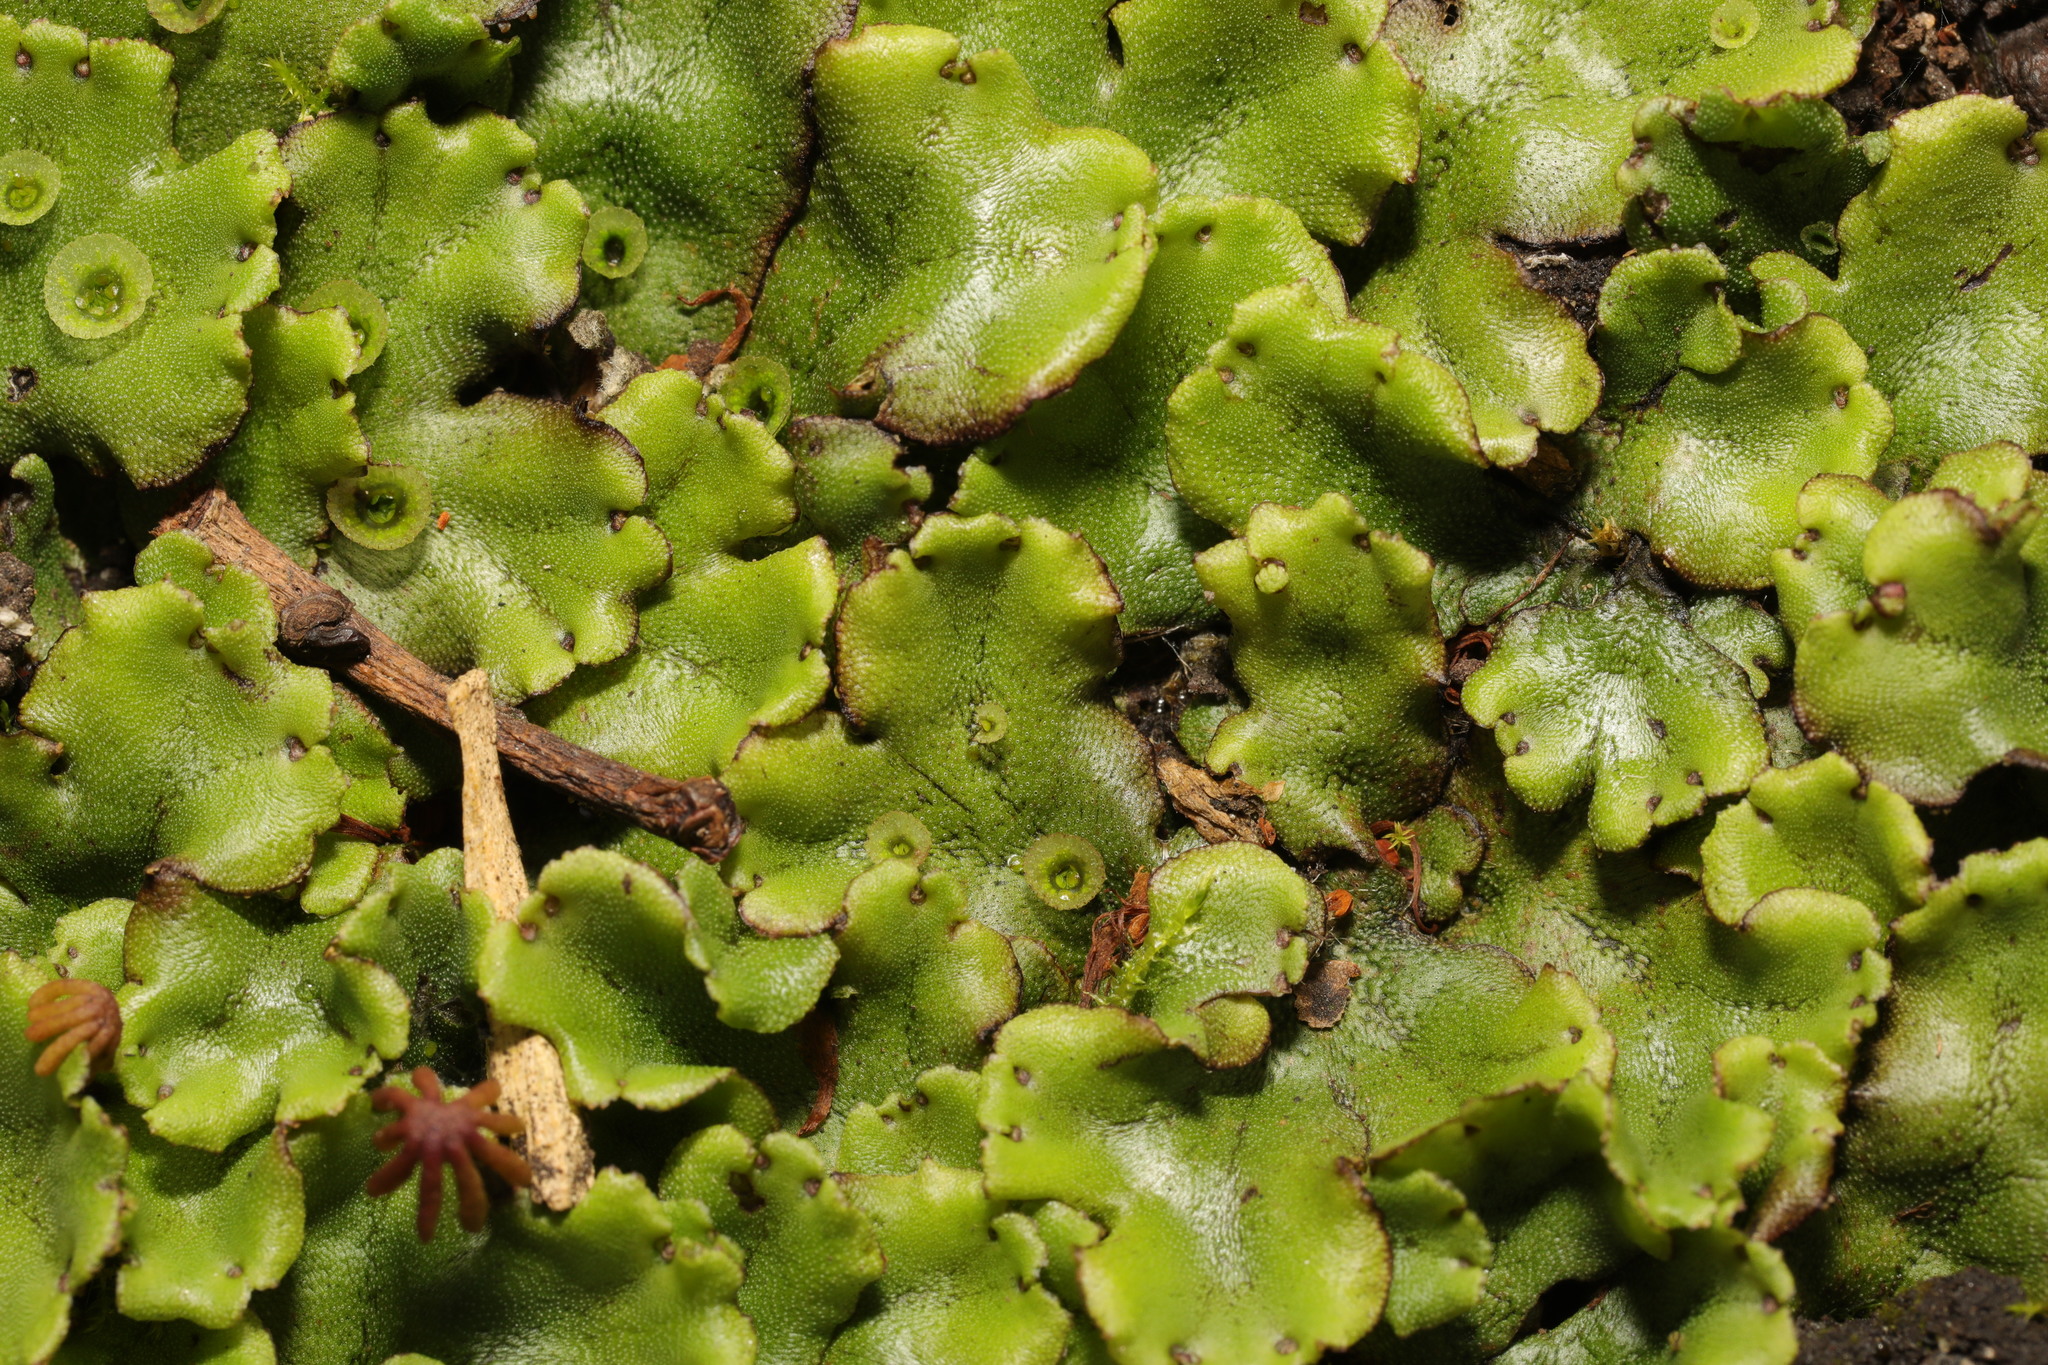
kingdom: Plantae
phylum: Marchantiophyta
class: Marchantiopsida
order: Marchantiales
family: Marchantiaceae
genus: Marchantia
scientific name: Marchantia polymorpha
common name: Common liverwort
